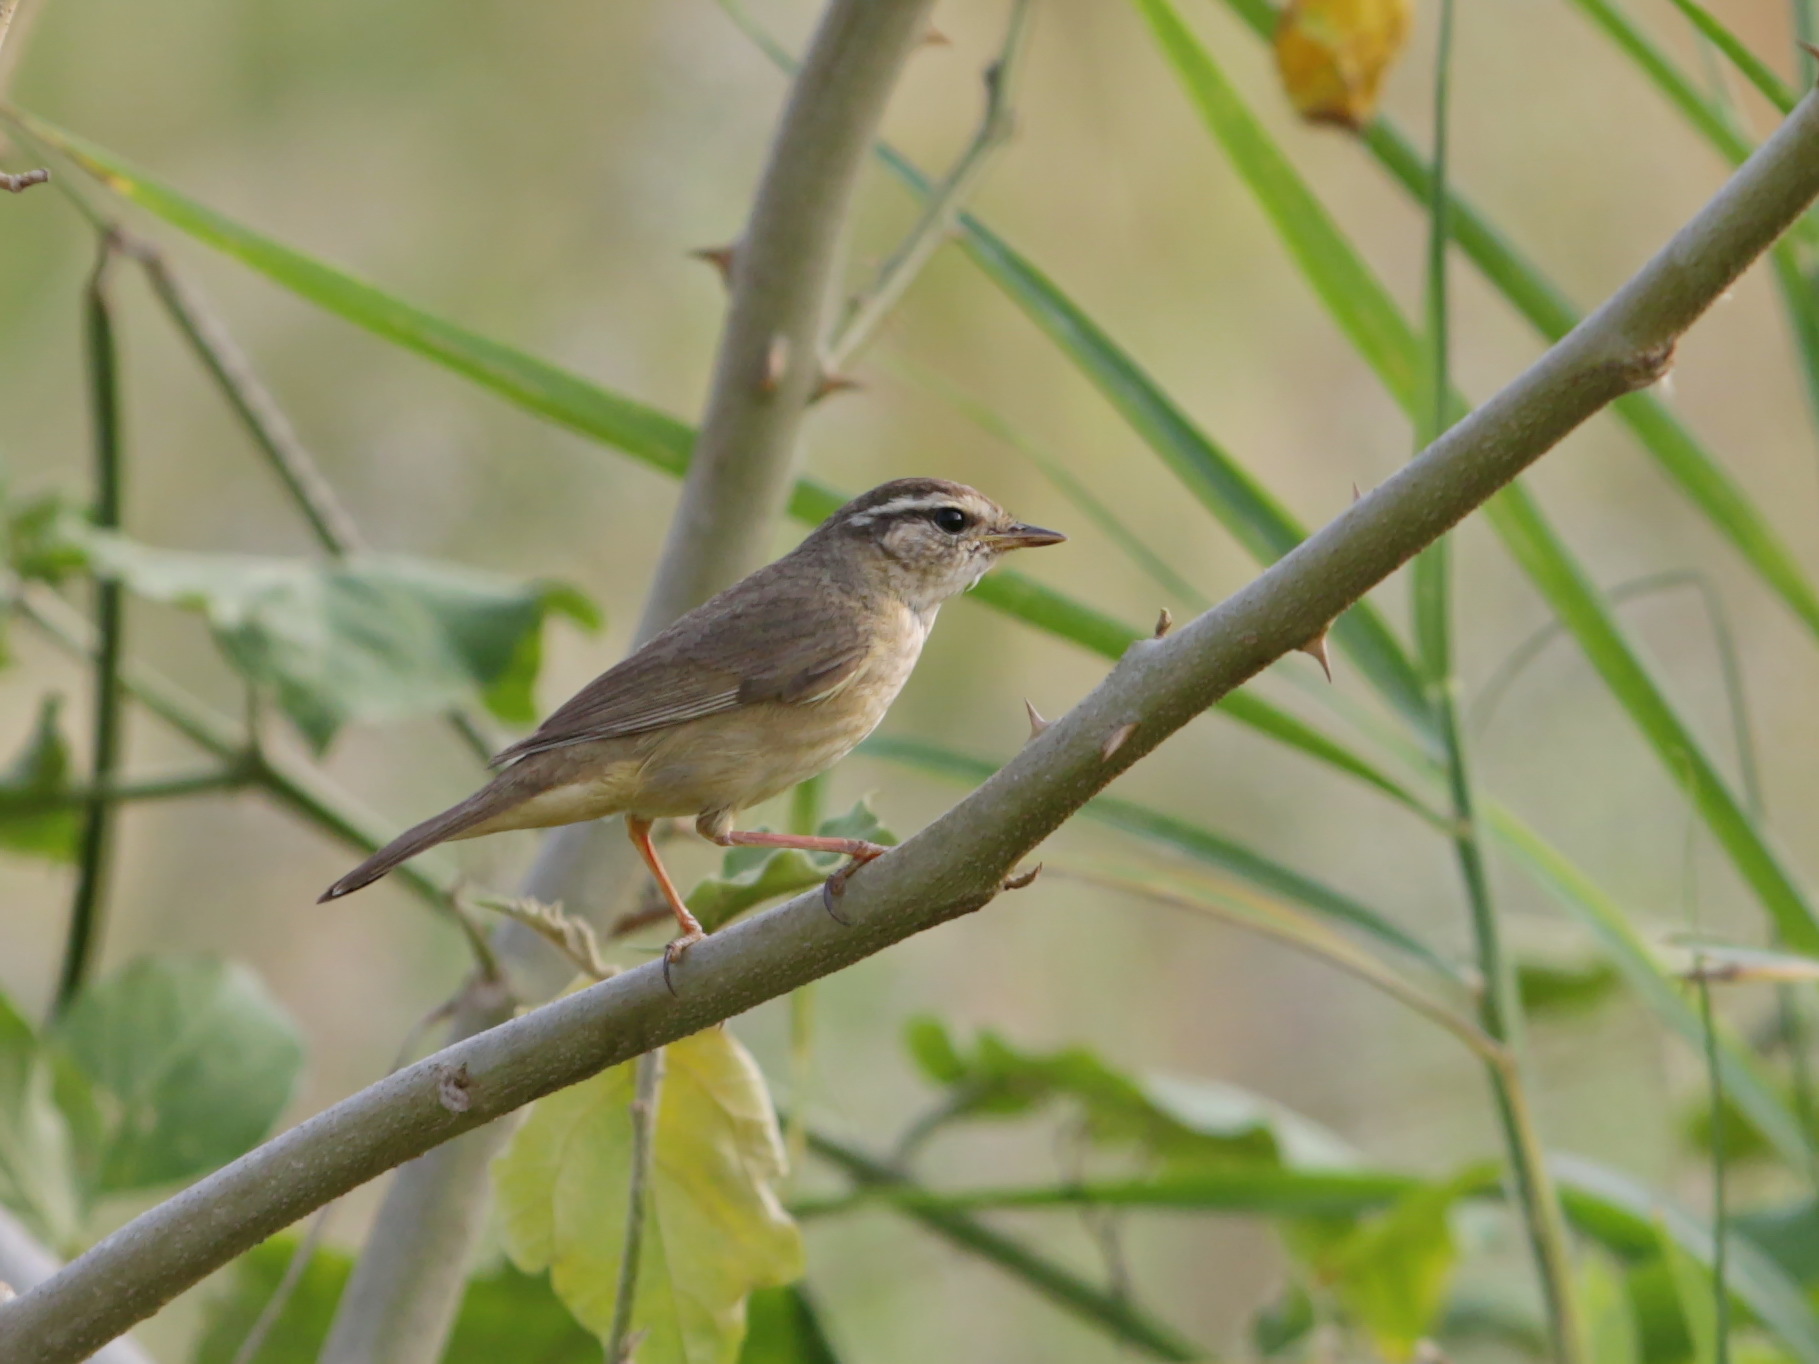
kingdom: Animalia
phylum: Chordata
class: Aves
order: Passeriformes
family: Phylloscopidae
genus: Phylloscopus
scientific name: Phylloscopus schwarzi
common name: Radde's warbler
